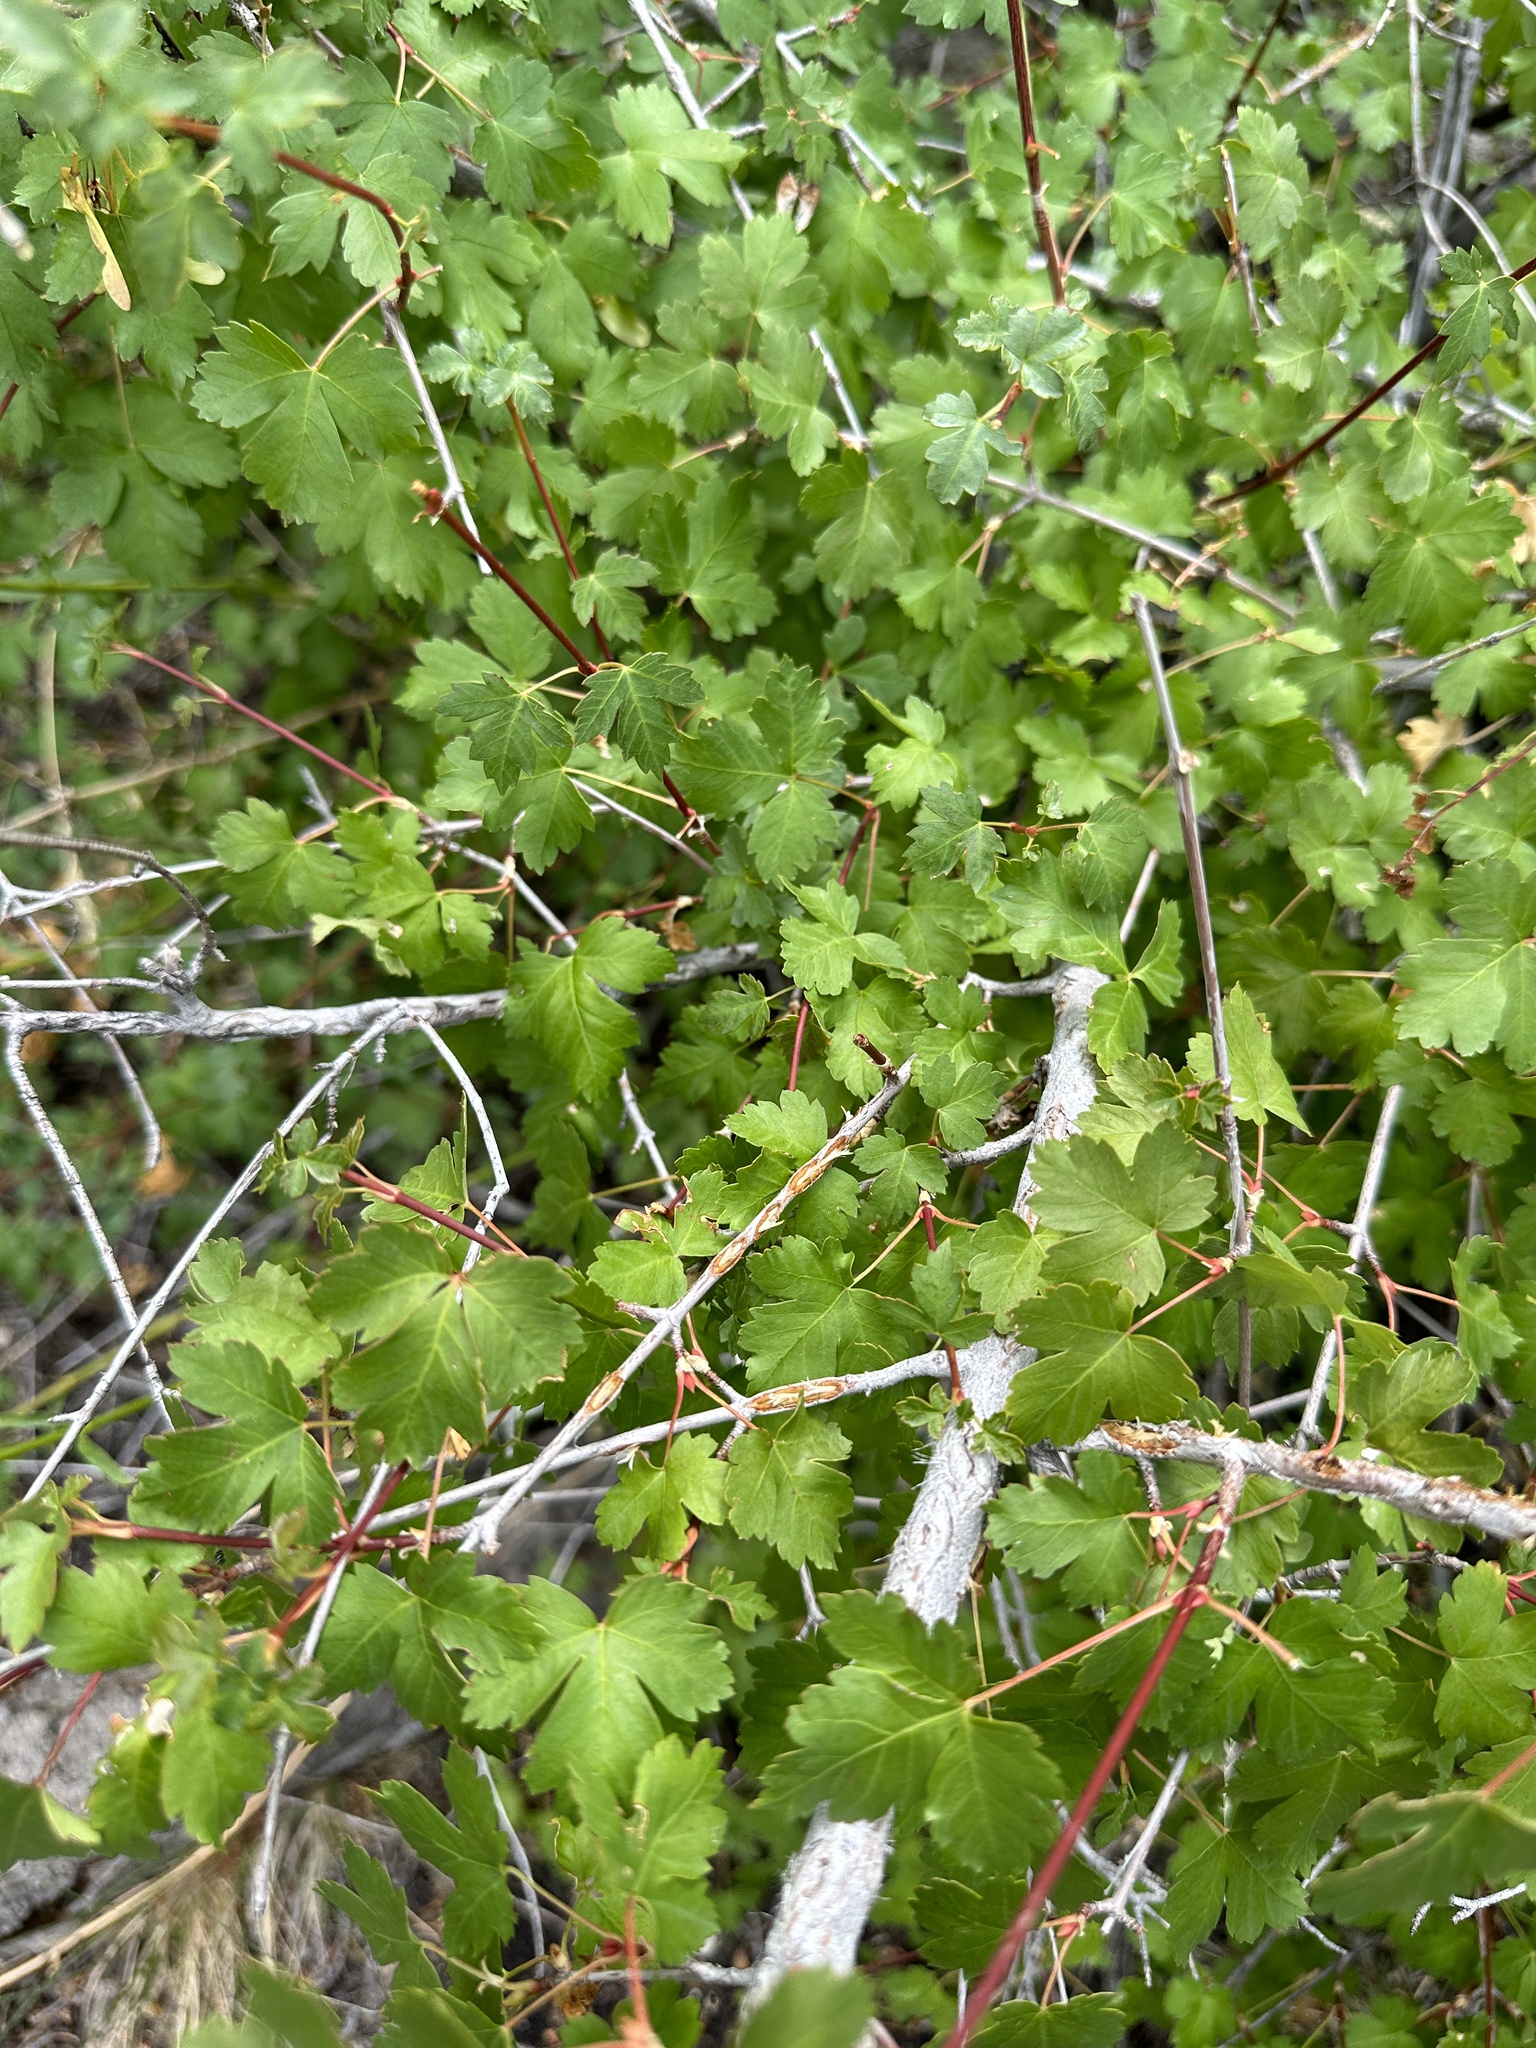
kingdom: Plantae
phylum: Tracheophyta
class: Magnoliopsida
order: Sapindales
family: Sapindaceae
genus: Acer
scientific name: Acer glabrum
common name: Rocky mountain maple
